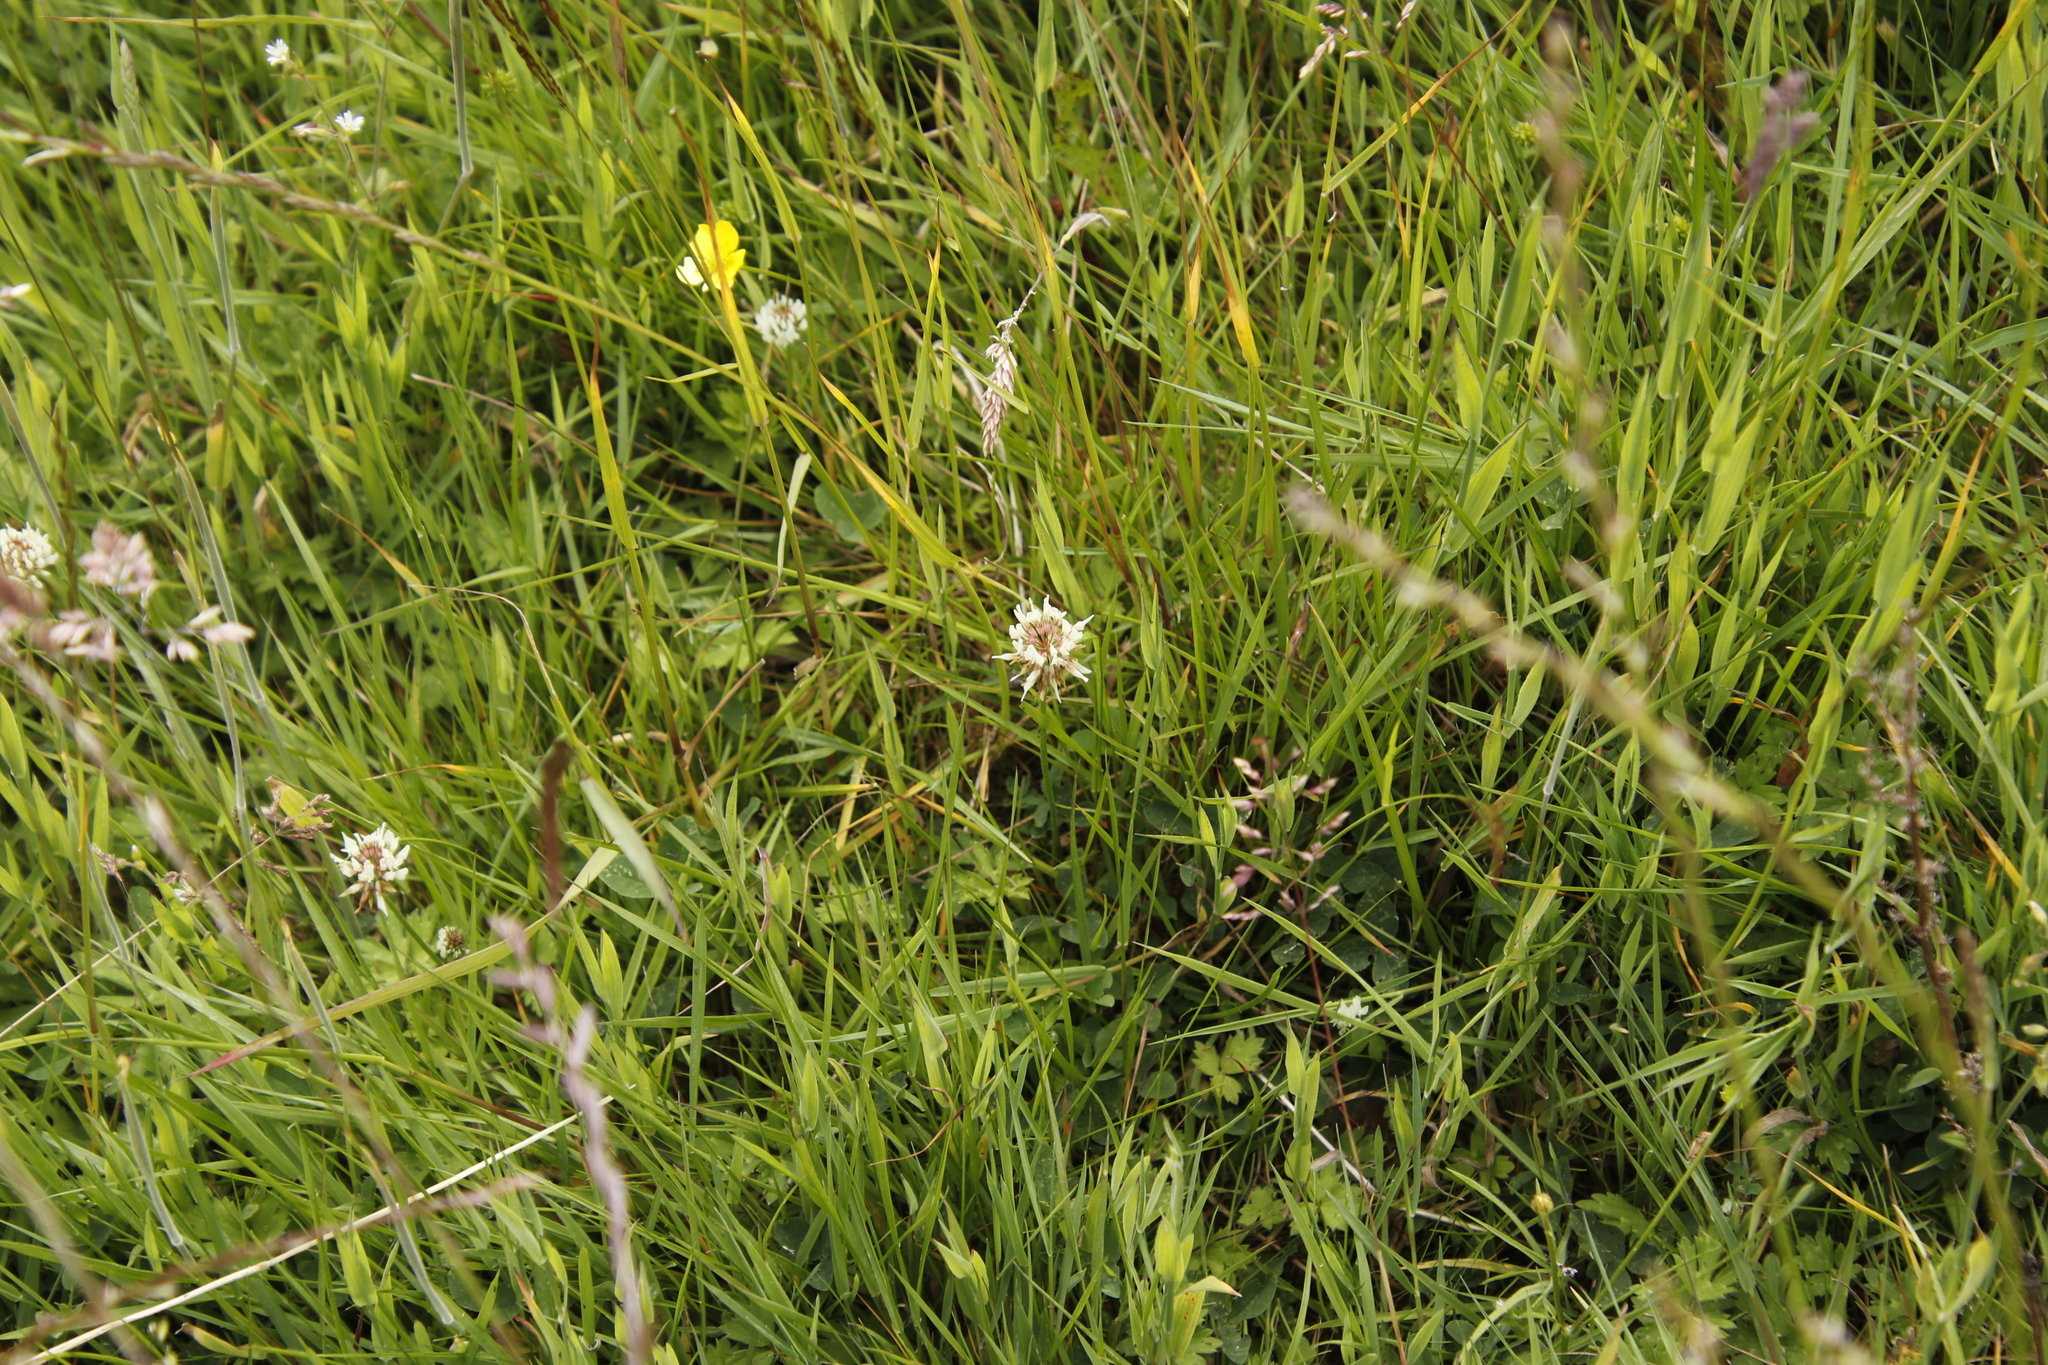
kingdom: Plantae
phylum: Tracheophyta
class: Magnoliopsida
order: Fabales
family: Fabaceae
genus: Trifolium
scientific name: Trifolium repens
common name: White clover
